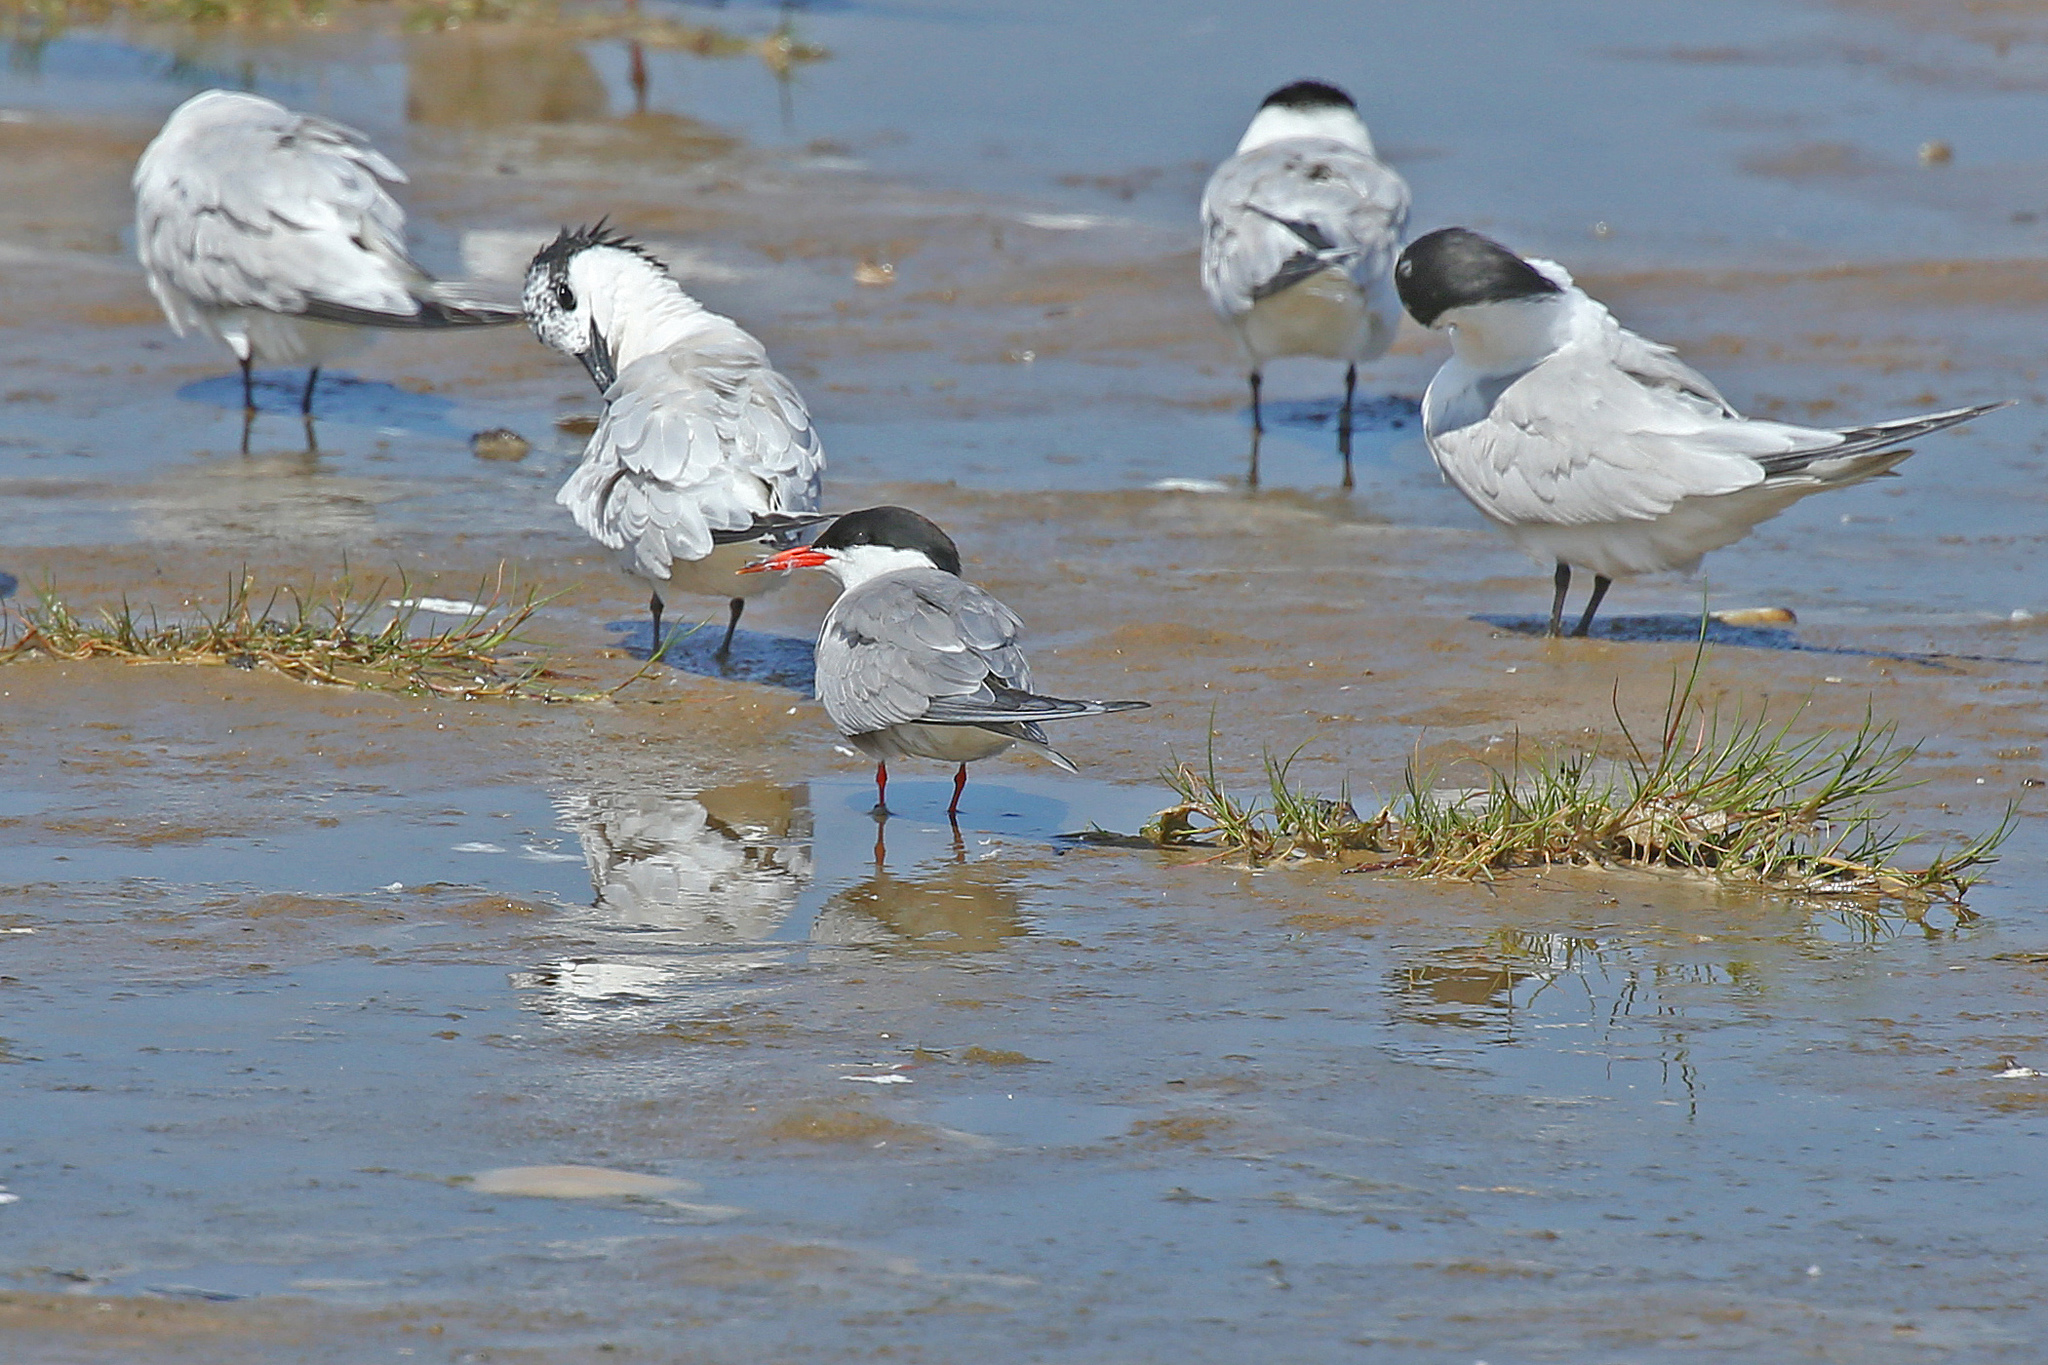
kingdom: Animalia
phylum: Chordata
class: Aves
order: Charadriiformes
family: Laridae
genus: Sterna
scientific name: Sterna hirundo
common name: Common tern
